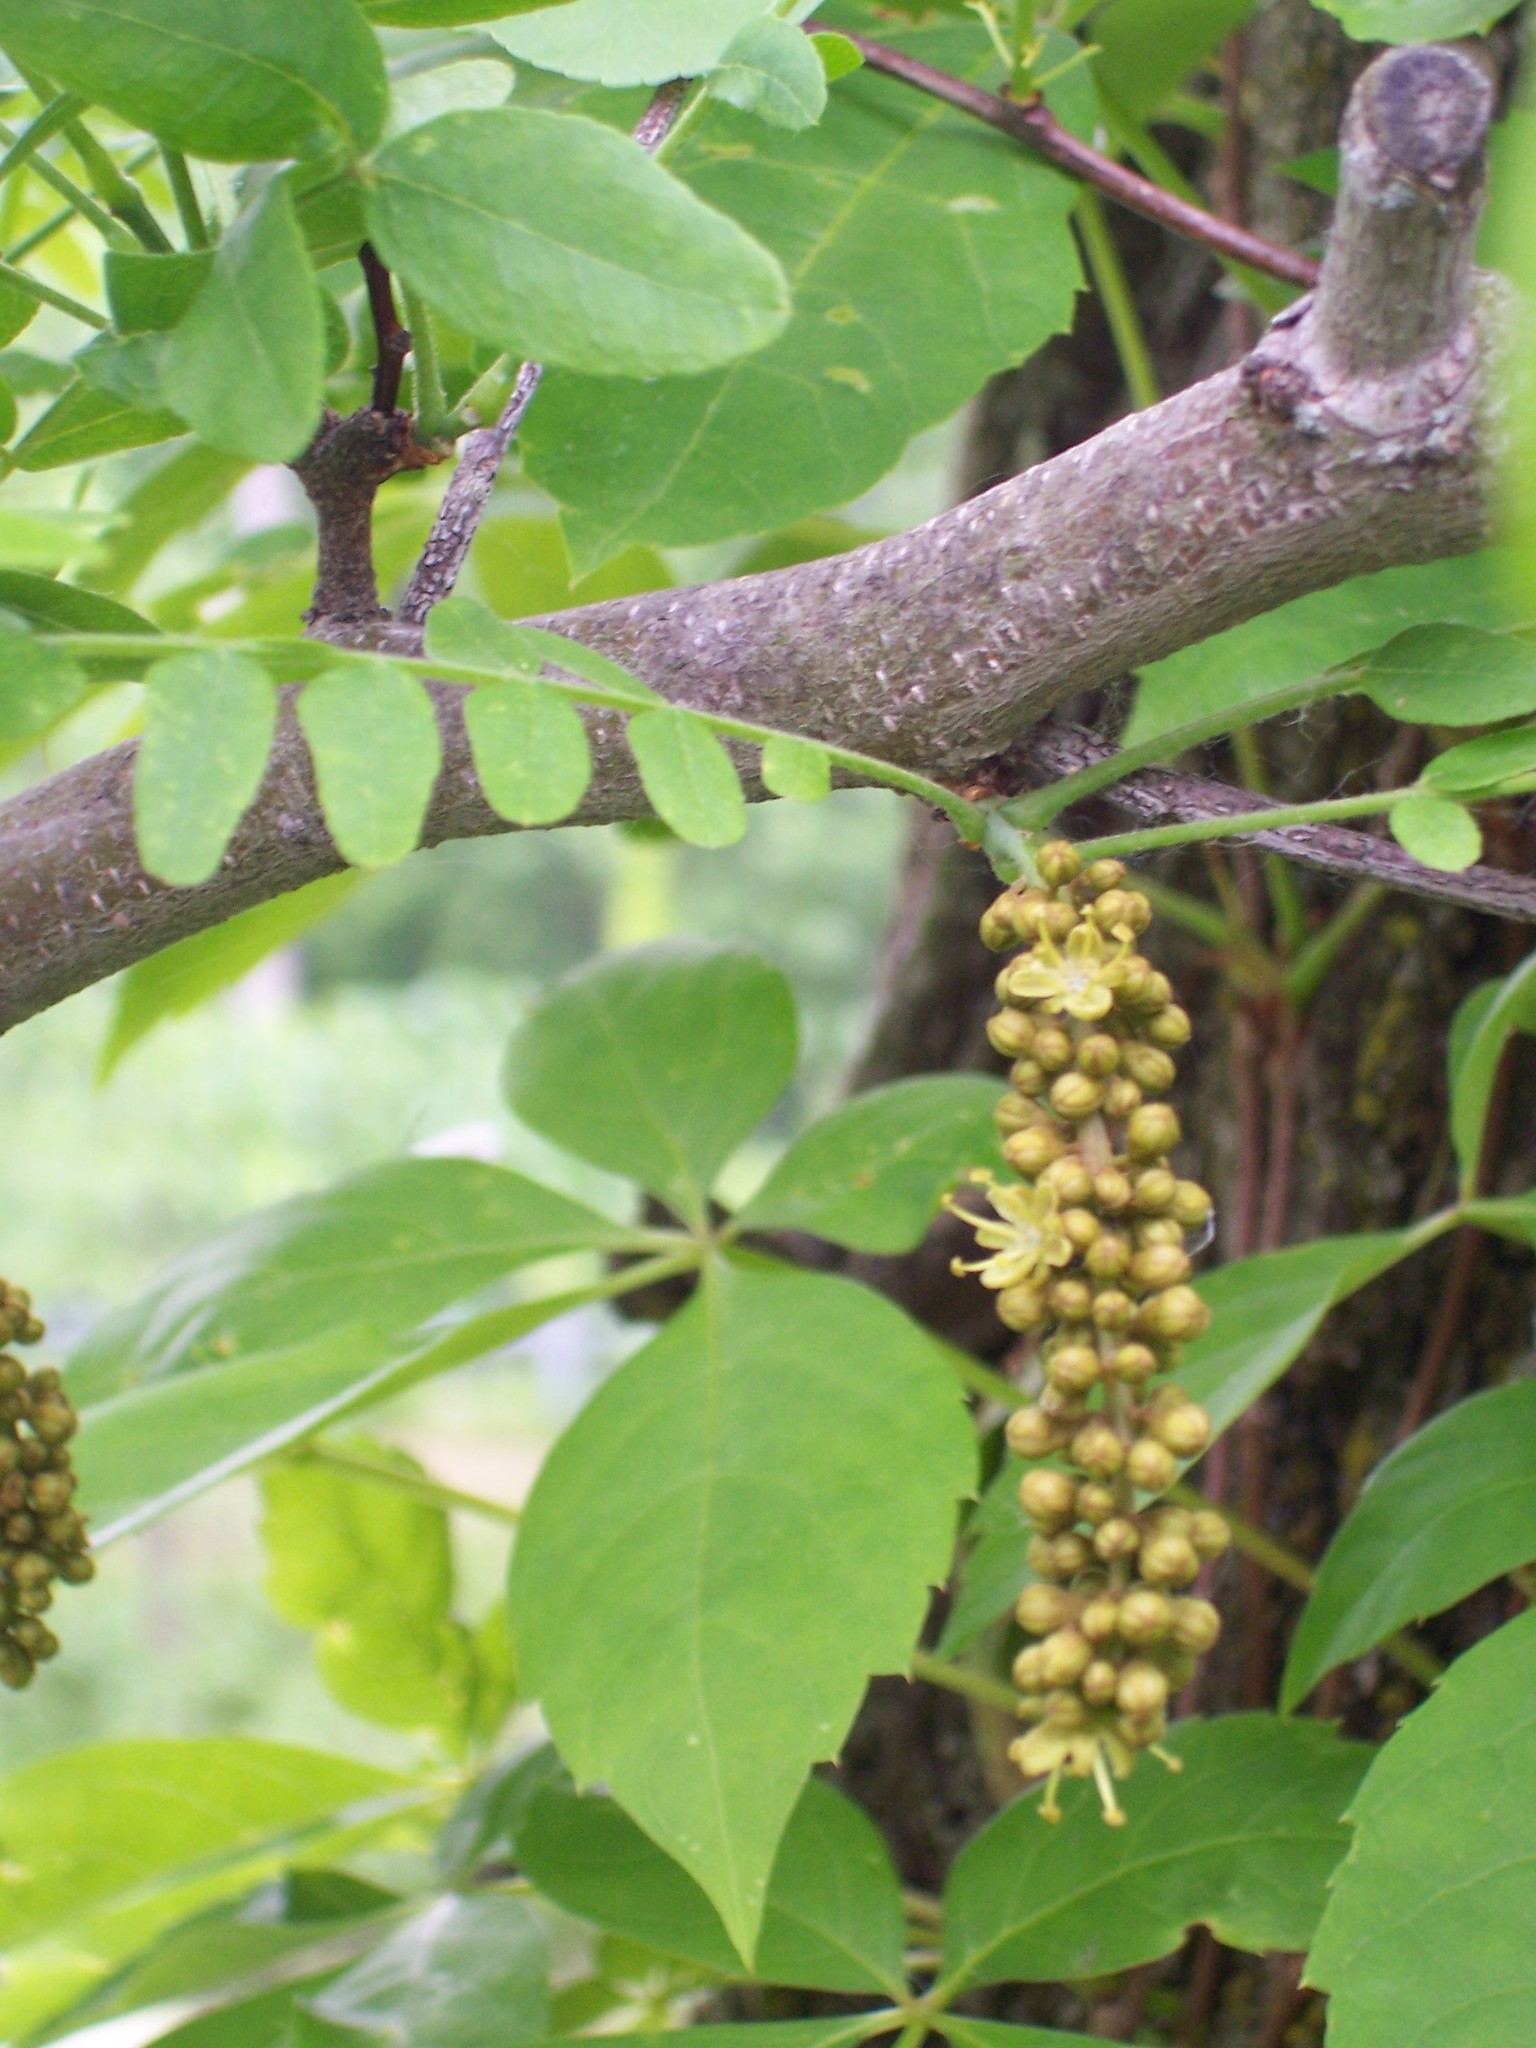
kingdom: Plantae
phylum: Tracheophyta
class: Magnoliopsida
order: Fabales
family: Fabaceae
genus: Gleditsia
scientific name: Gleditsia triacanthos
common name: Common honeylocust
